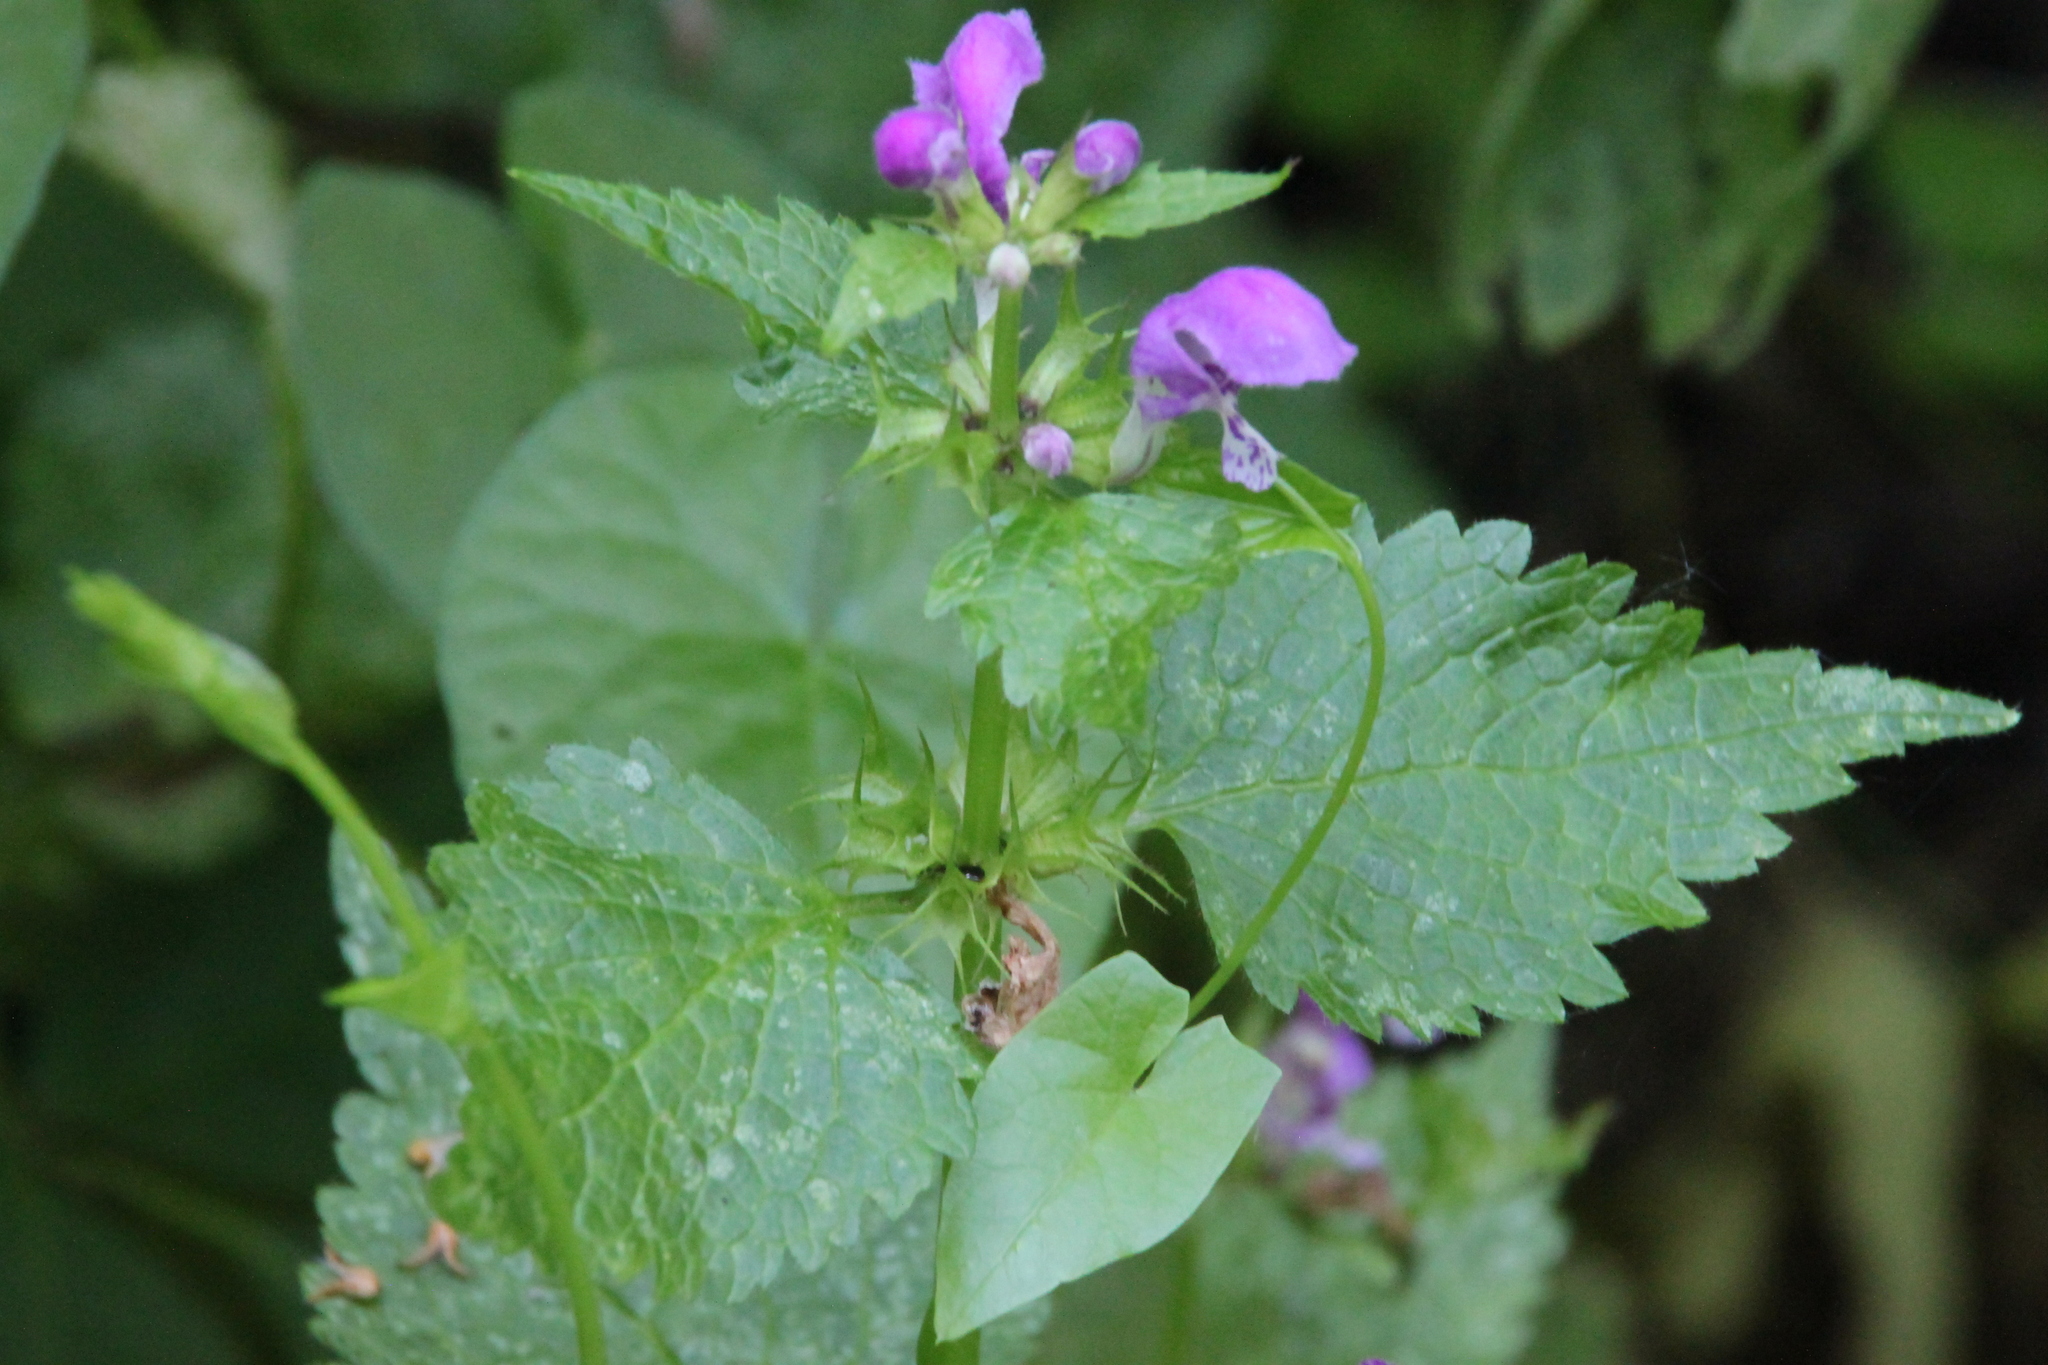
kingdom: Plantae
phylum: Tracheophyta
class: Magnoliopsida
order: Lamiales
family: Lamiaceae
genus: Lamium
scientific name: Lamium maculatum
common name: Spotted dead-nettle
